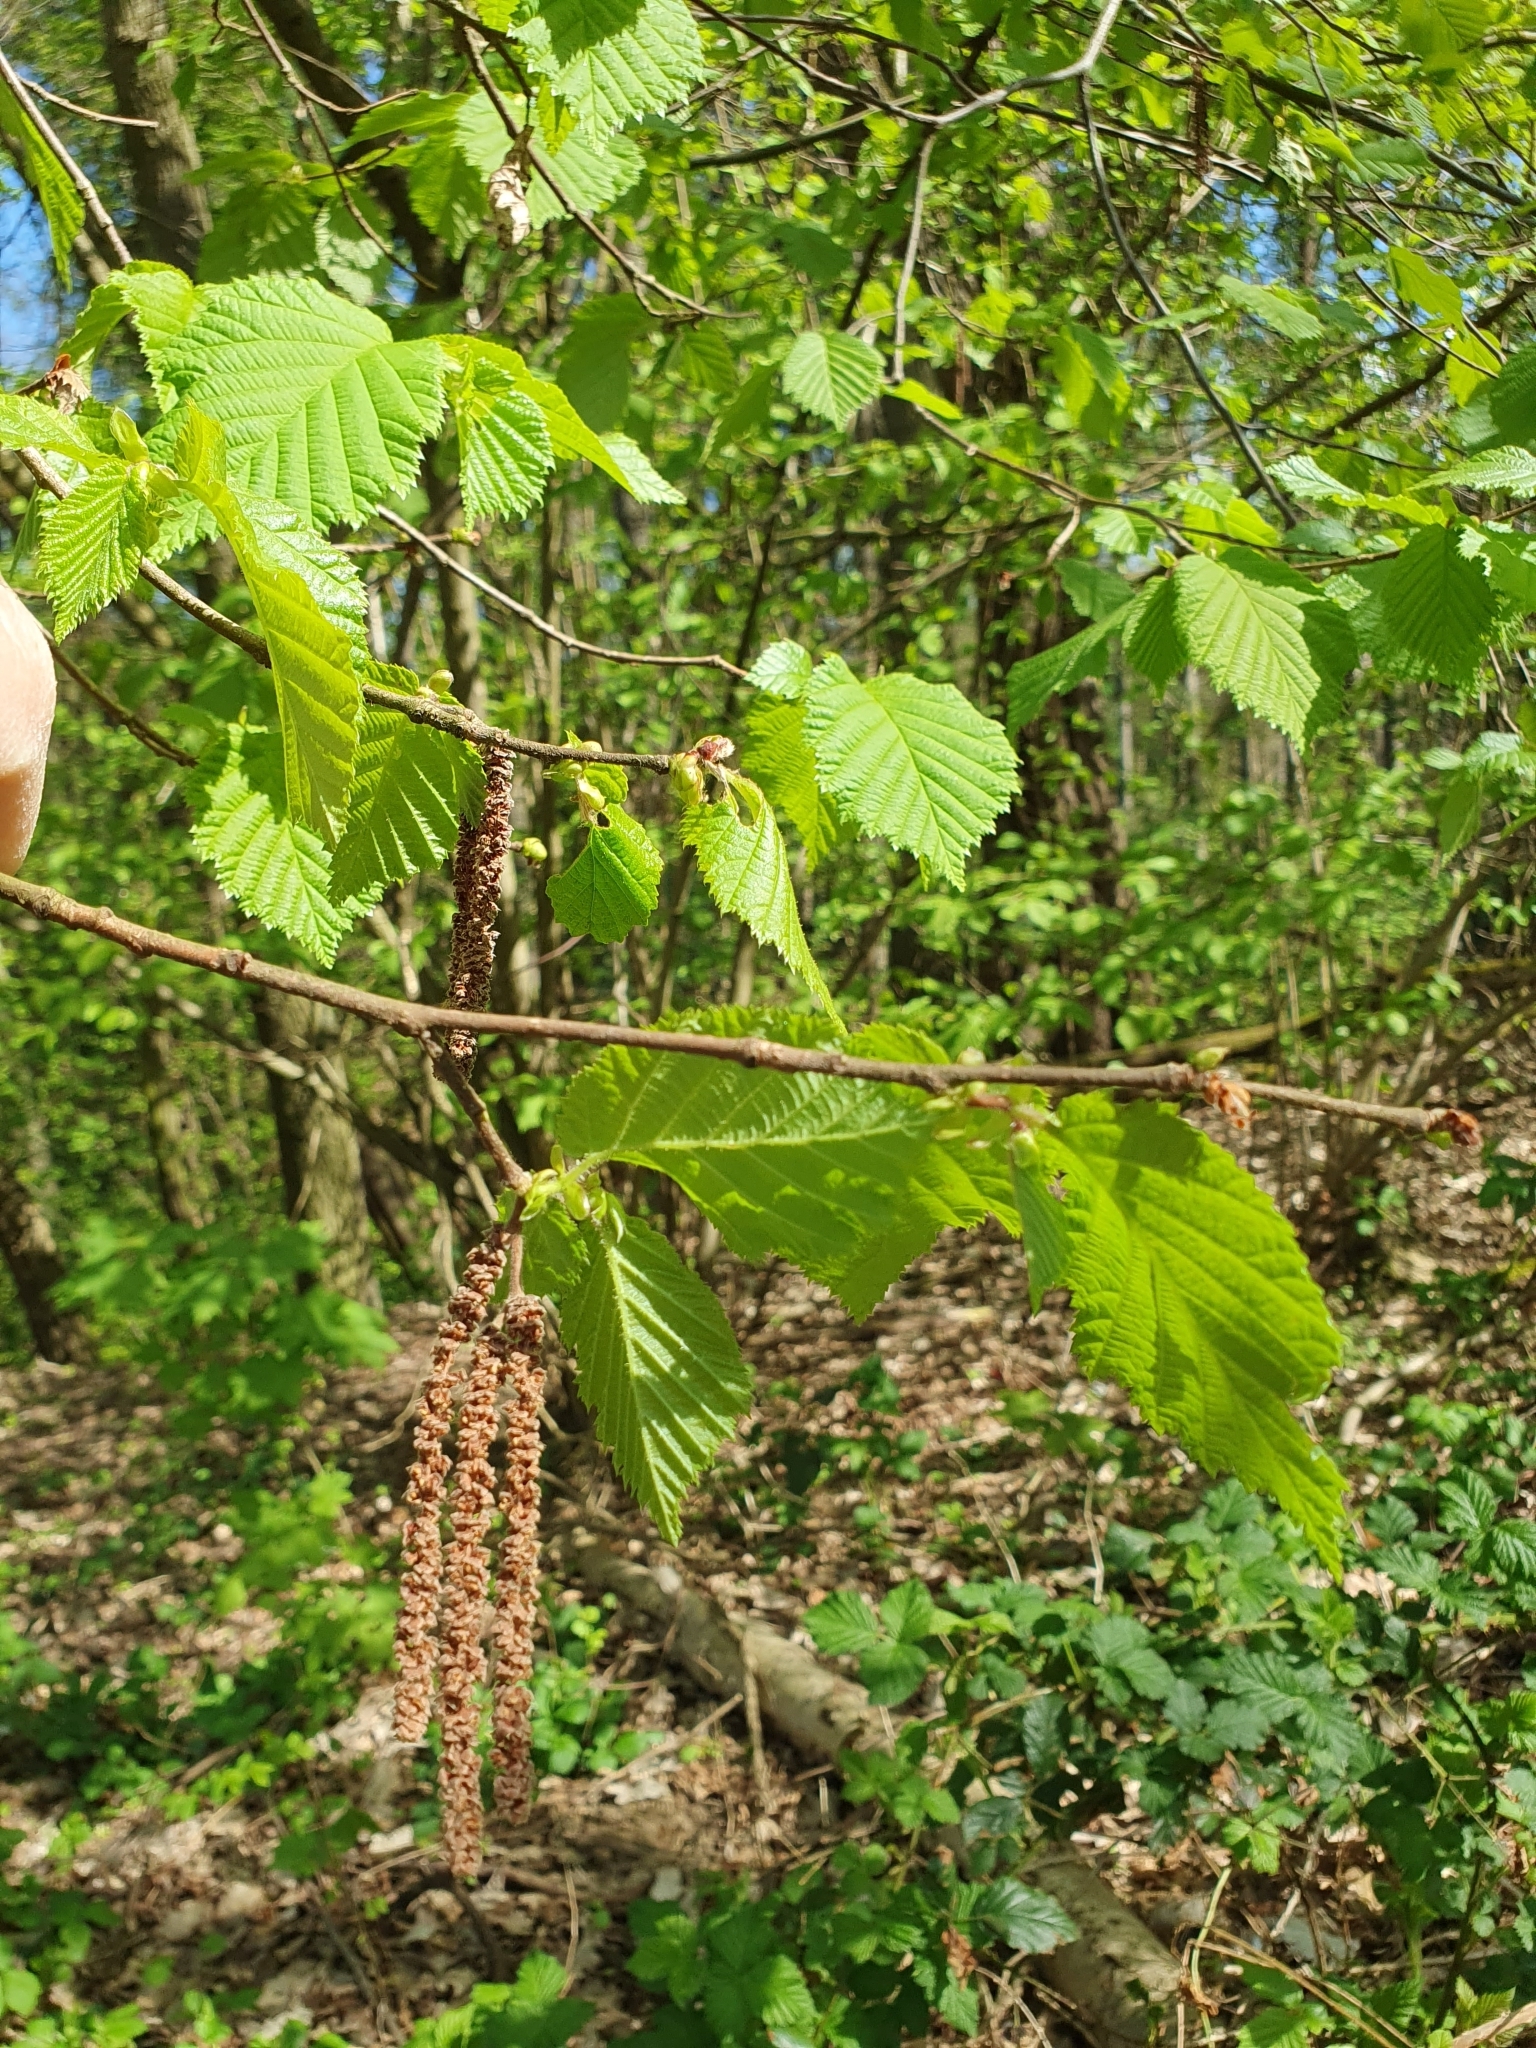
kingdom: Plantae
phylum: Tracheophyta
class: Magnoliopsida
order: Fagales
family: Betulaceae
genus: Corylus
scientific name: Corylus avellana
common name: European hazel
